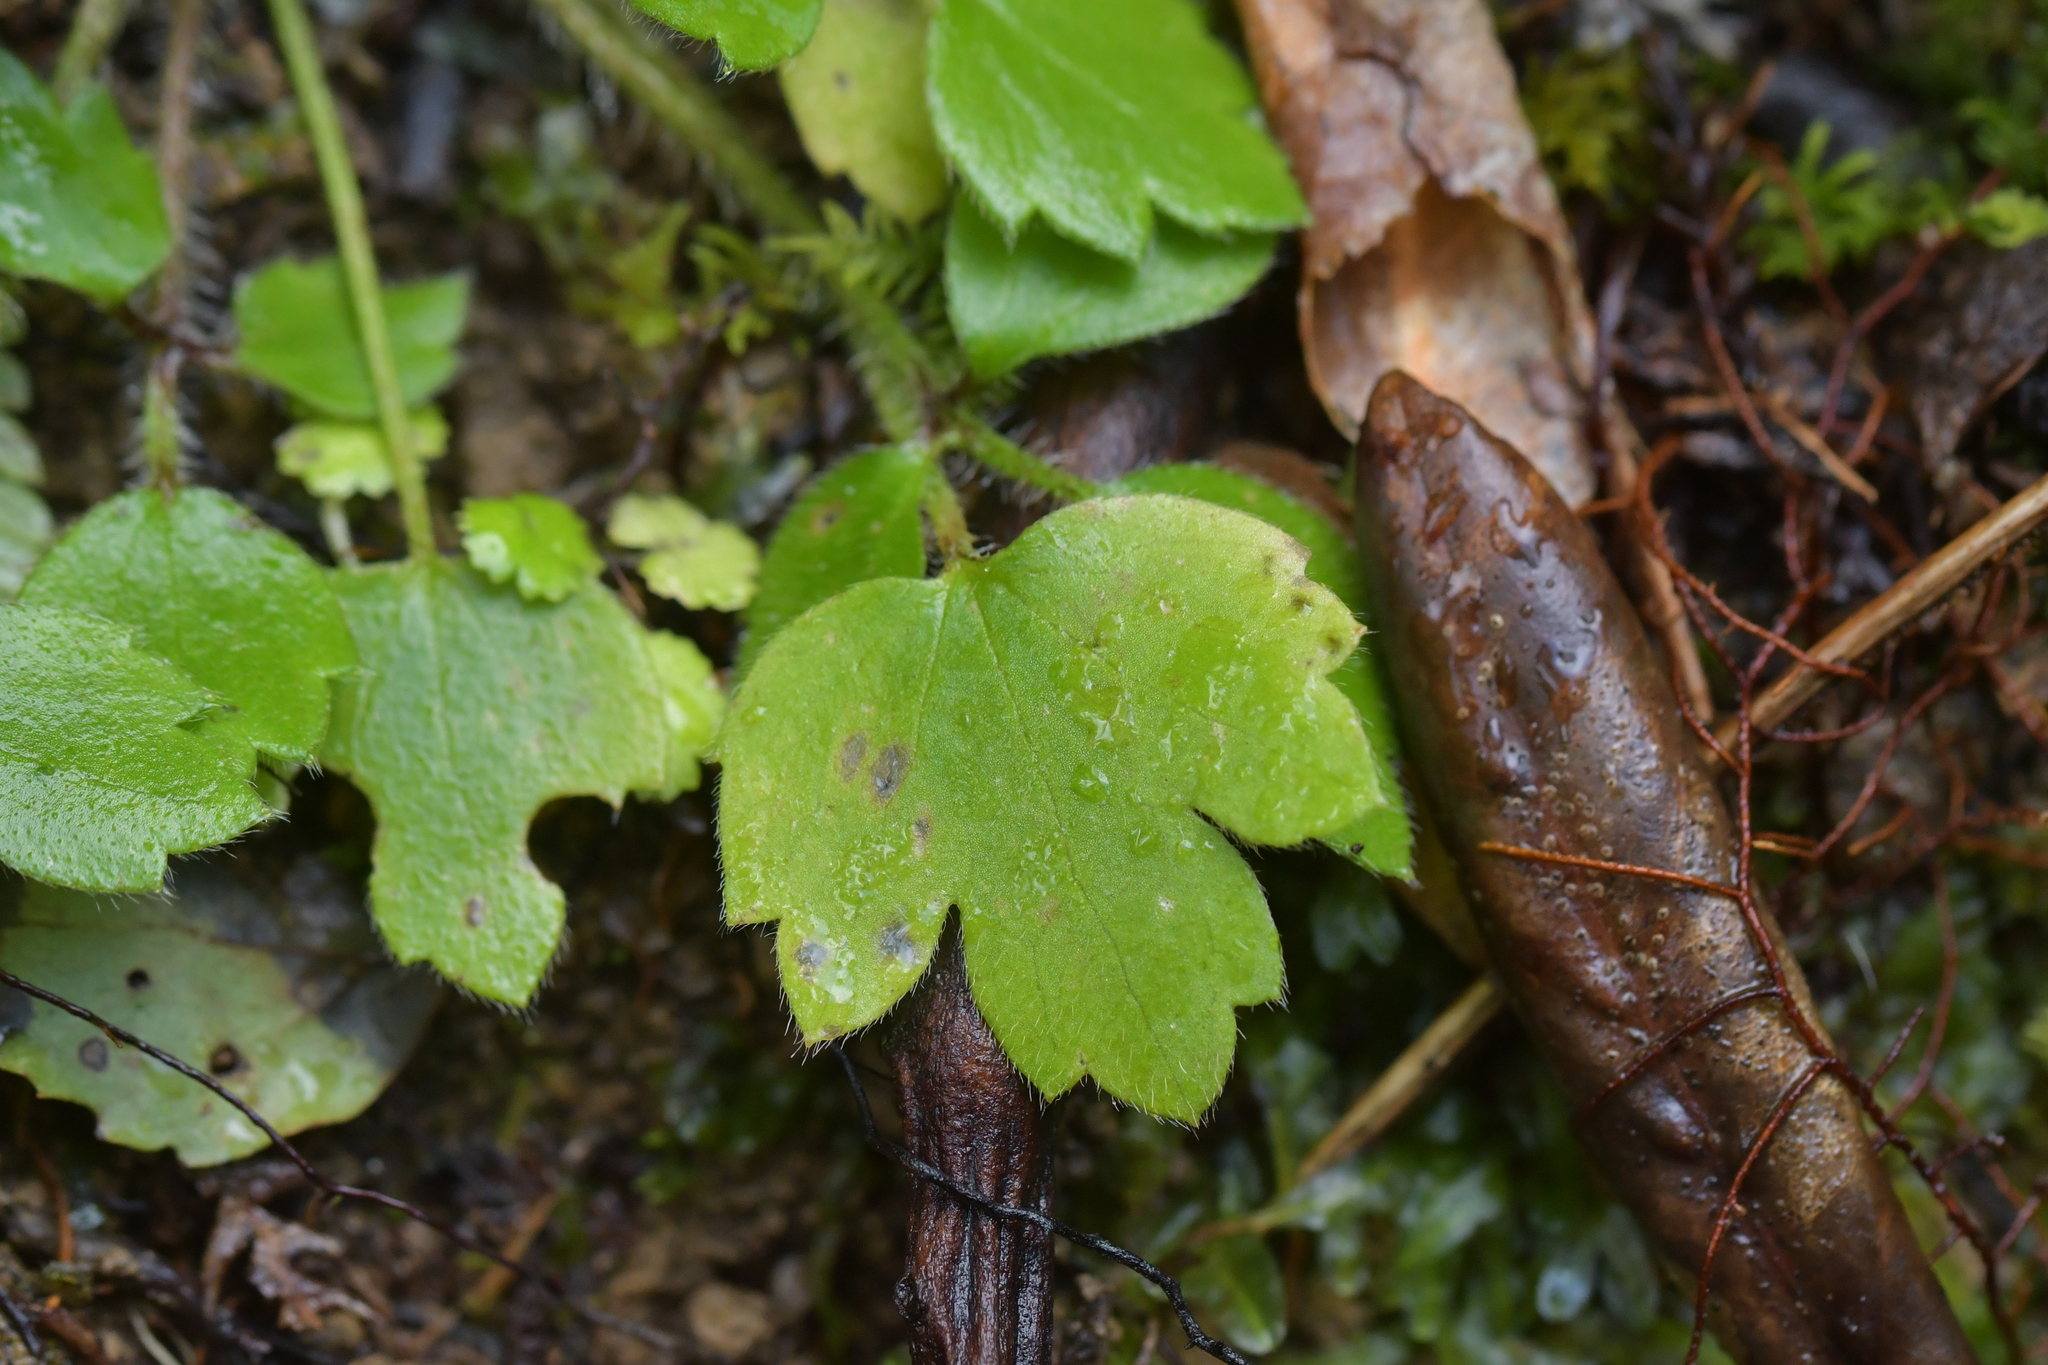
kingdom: Plantae
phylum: Tracheophyta
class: Magnoliopsida
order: Ranunculales
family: Ranunculaceae
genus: Ranunculus
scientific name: Ranunculus reflexus
